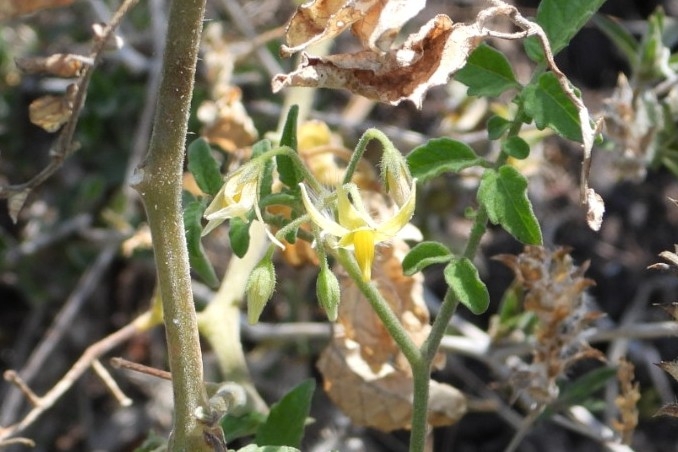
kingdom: Plantae
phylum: Tracheophyta
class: Magnoliopsida
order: Solanales
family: Solanaceae
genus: Solanum
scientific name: Solanum lycopersicum
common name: Garden tomato
